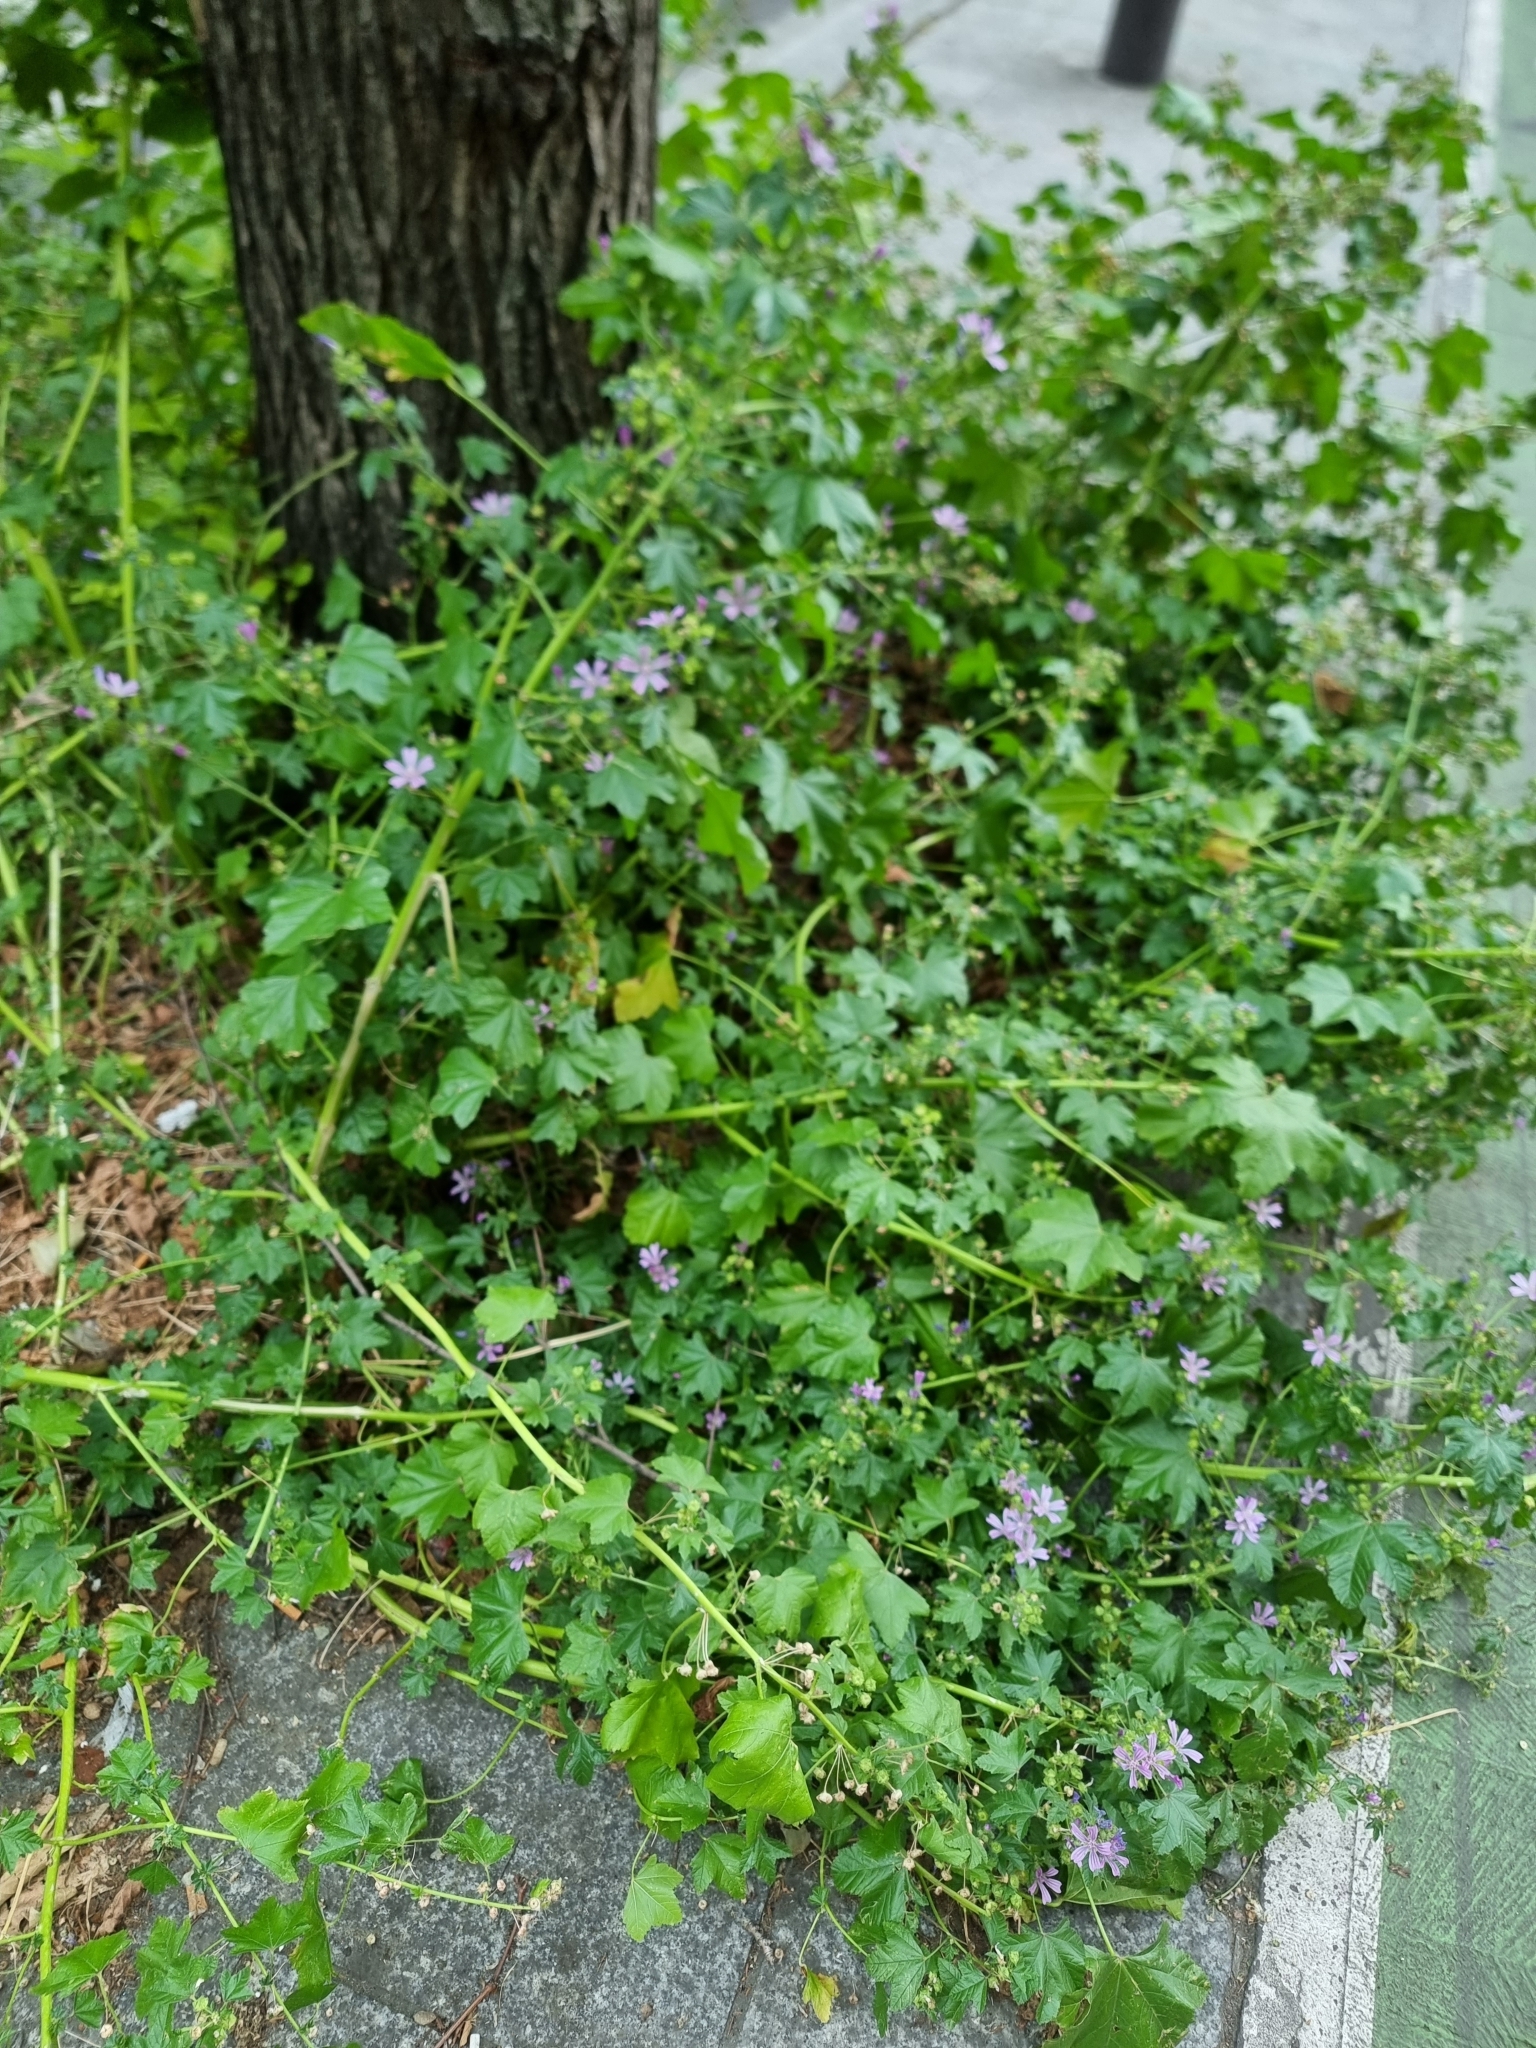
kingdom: Plantae
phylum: Tracheophyta
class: Magnoliopsida
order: Malvales
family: Malvaceae
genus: Malva
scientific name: Malva sylvestris
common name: Common mallow
